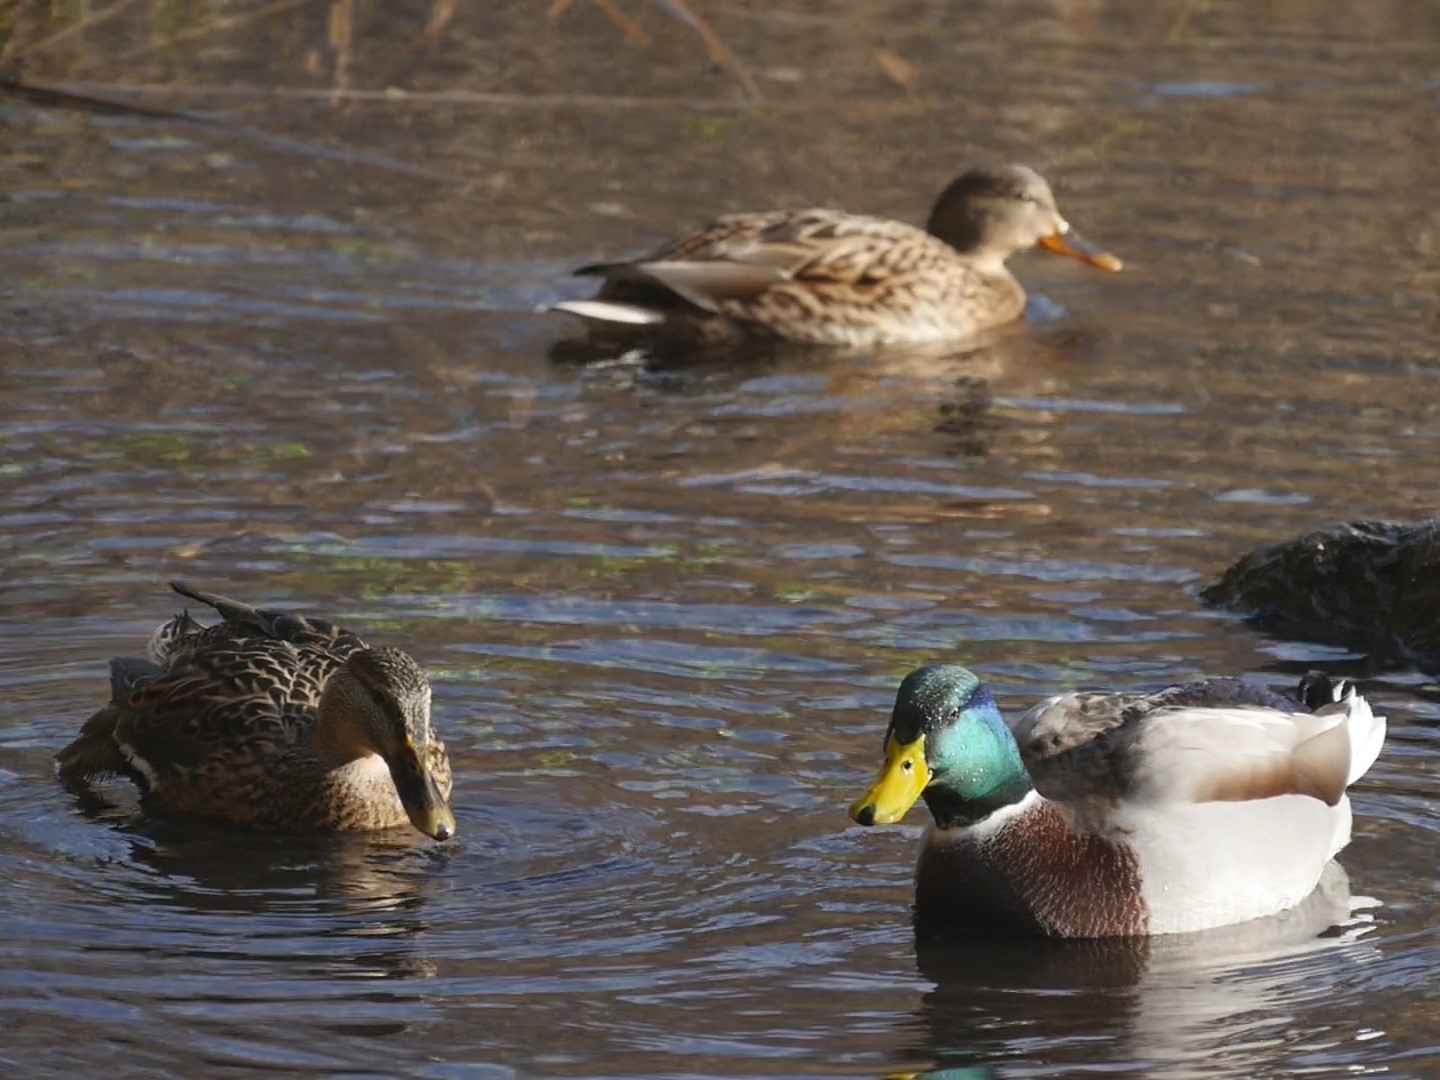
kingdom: Animalia
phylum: Chordata
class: Aves
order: Anseriformes
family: Anatidae
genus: Anas
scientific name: Anas platyrhynchos
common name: Mallard
